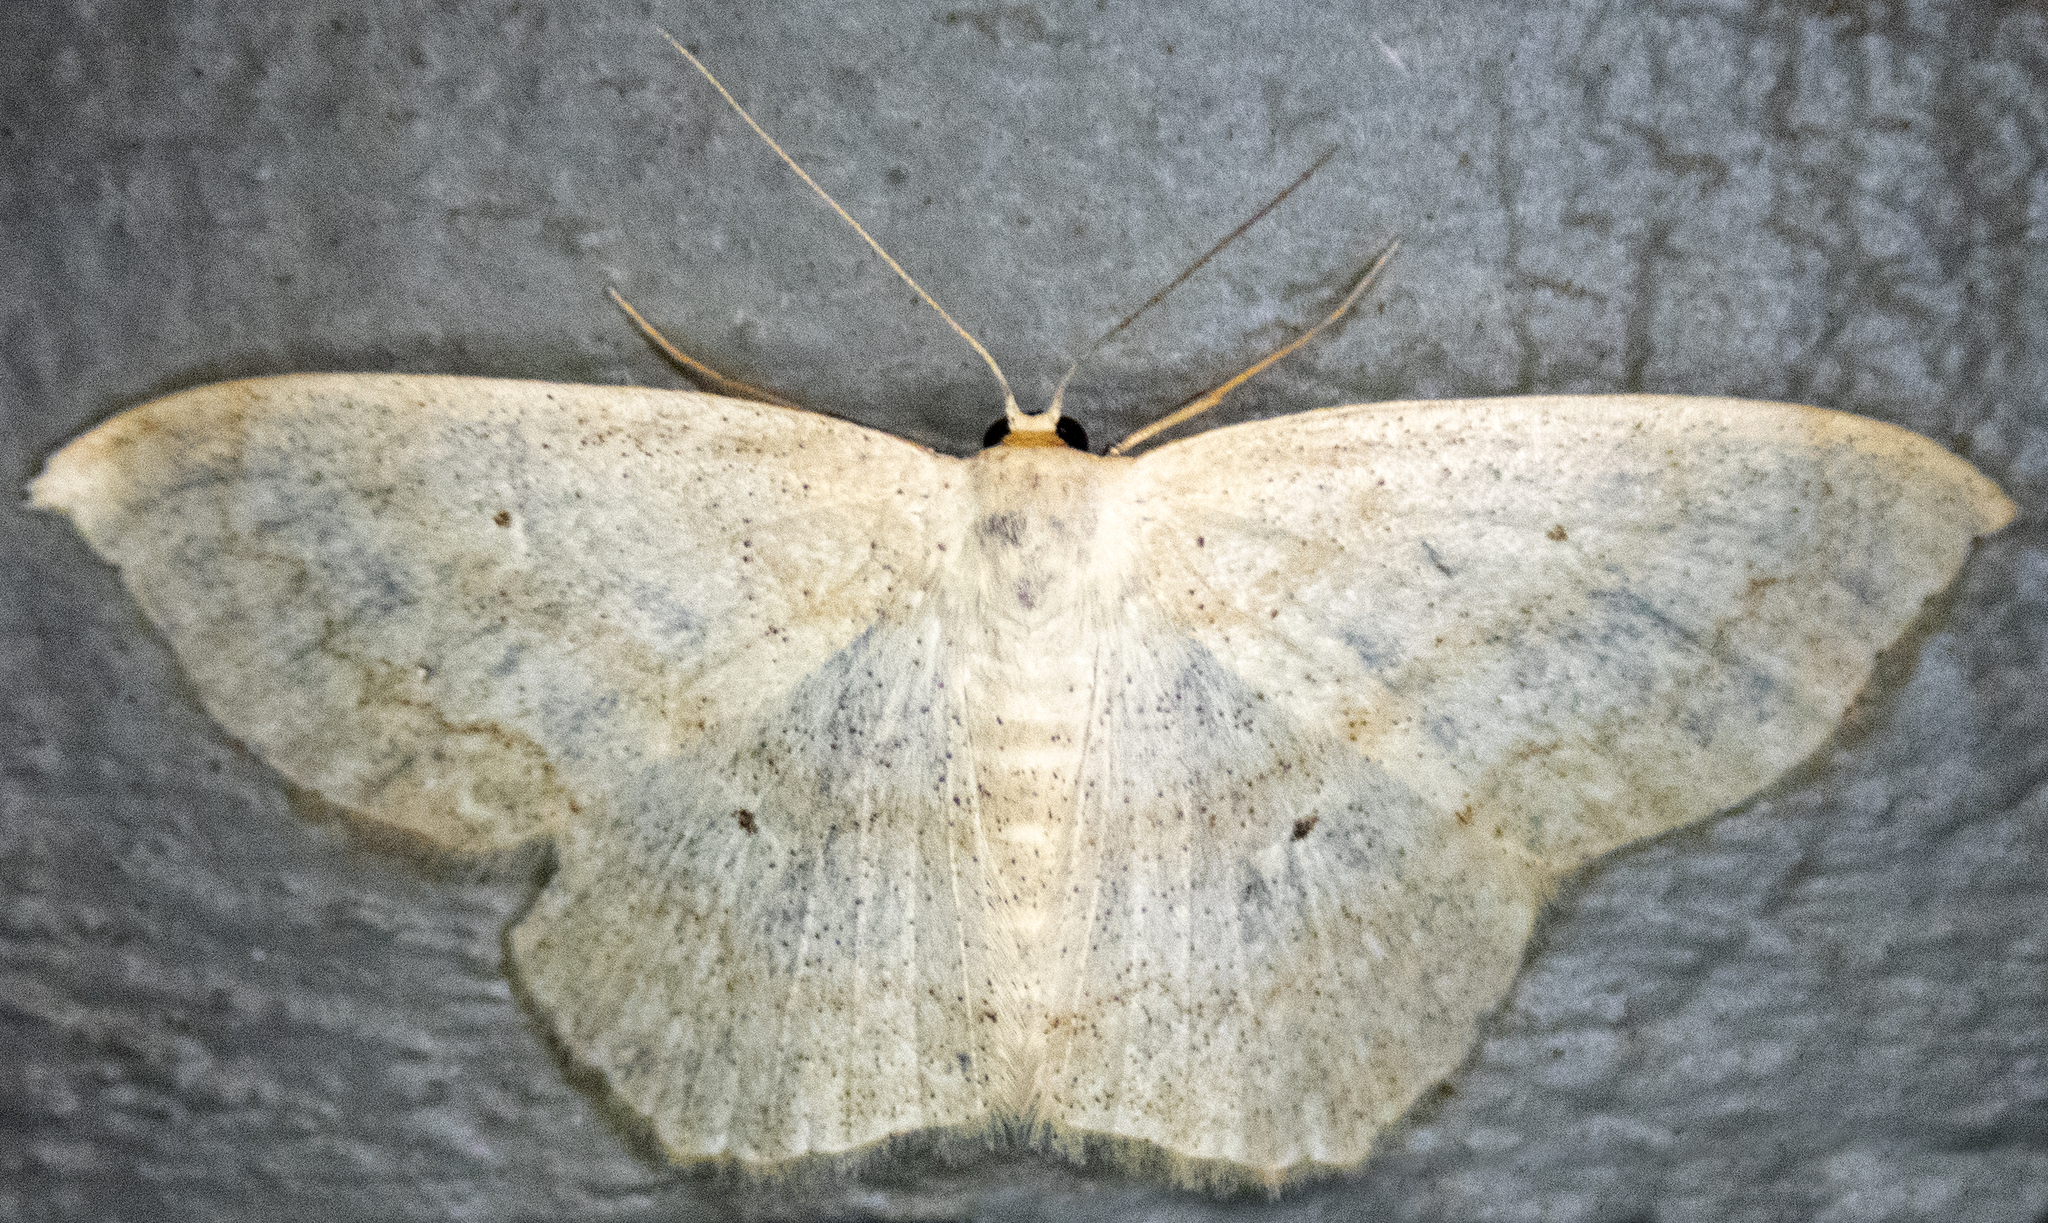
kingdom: Animalia
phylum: Arthropoda
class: Insecta
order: Lepidoptera
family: Geometridae
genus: Scopula
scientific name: Scopula limboundata
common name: Large lace border
